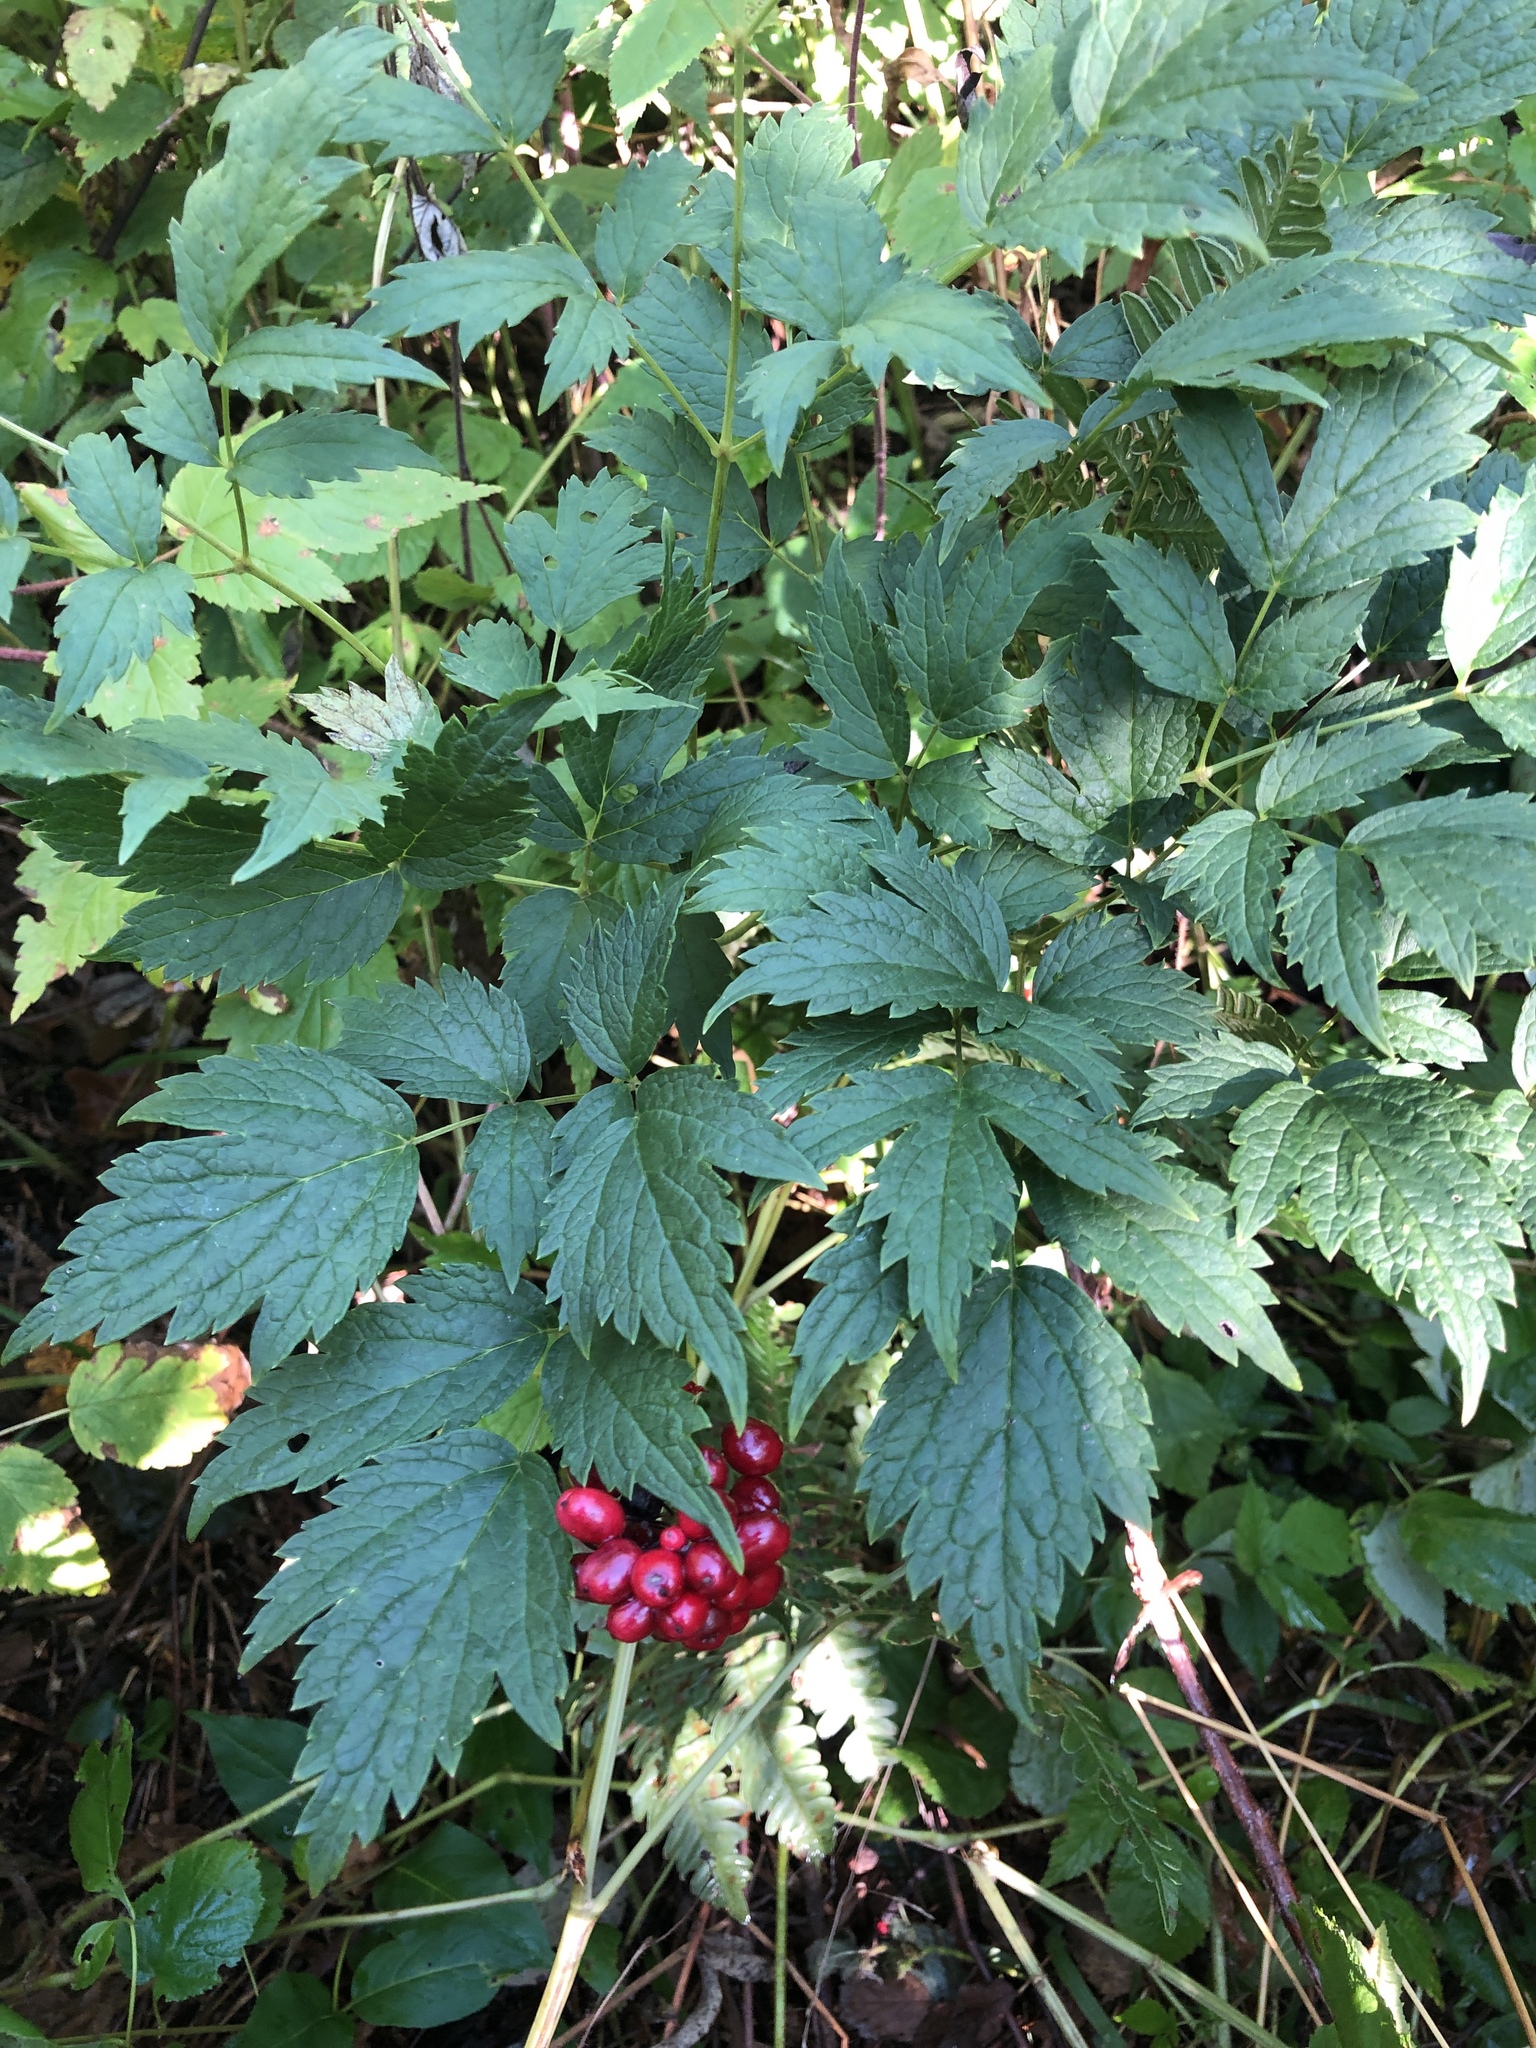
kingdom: Plantae
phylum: Tracheophyta
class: Magnoliopsida
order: Ranunculales
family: Ranunculaceae
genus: Actaea
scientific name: Actaea rubra
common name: Red baneberry
